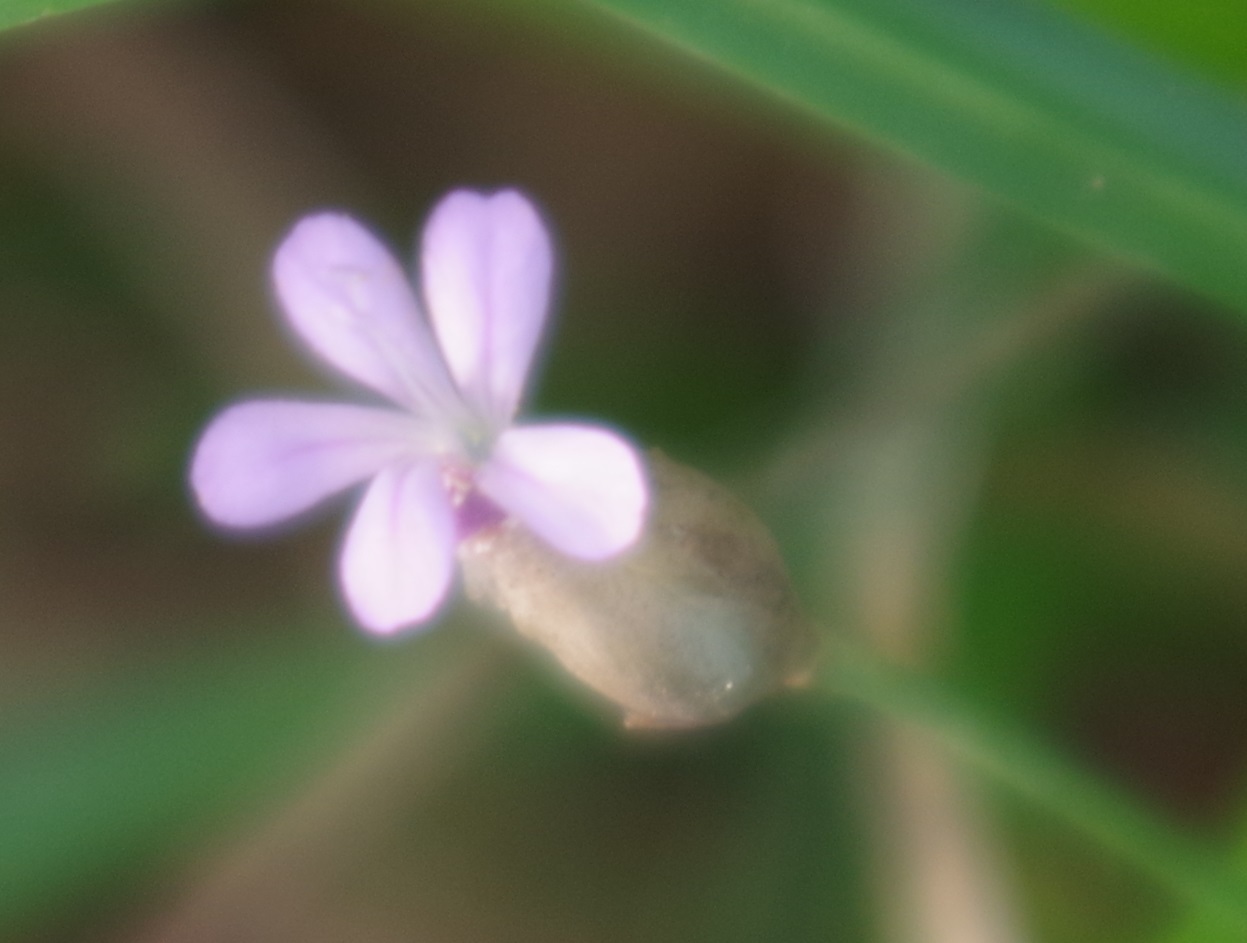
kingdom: Plantae
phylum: Tracheophyta
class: Magnoliopsida
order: Caryophyllales
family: Caryophyllaceae
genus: Petrorhagia
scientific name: Petrorhagia prolifera
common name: Proliferous pink
